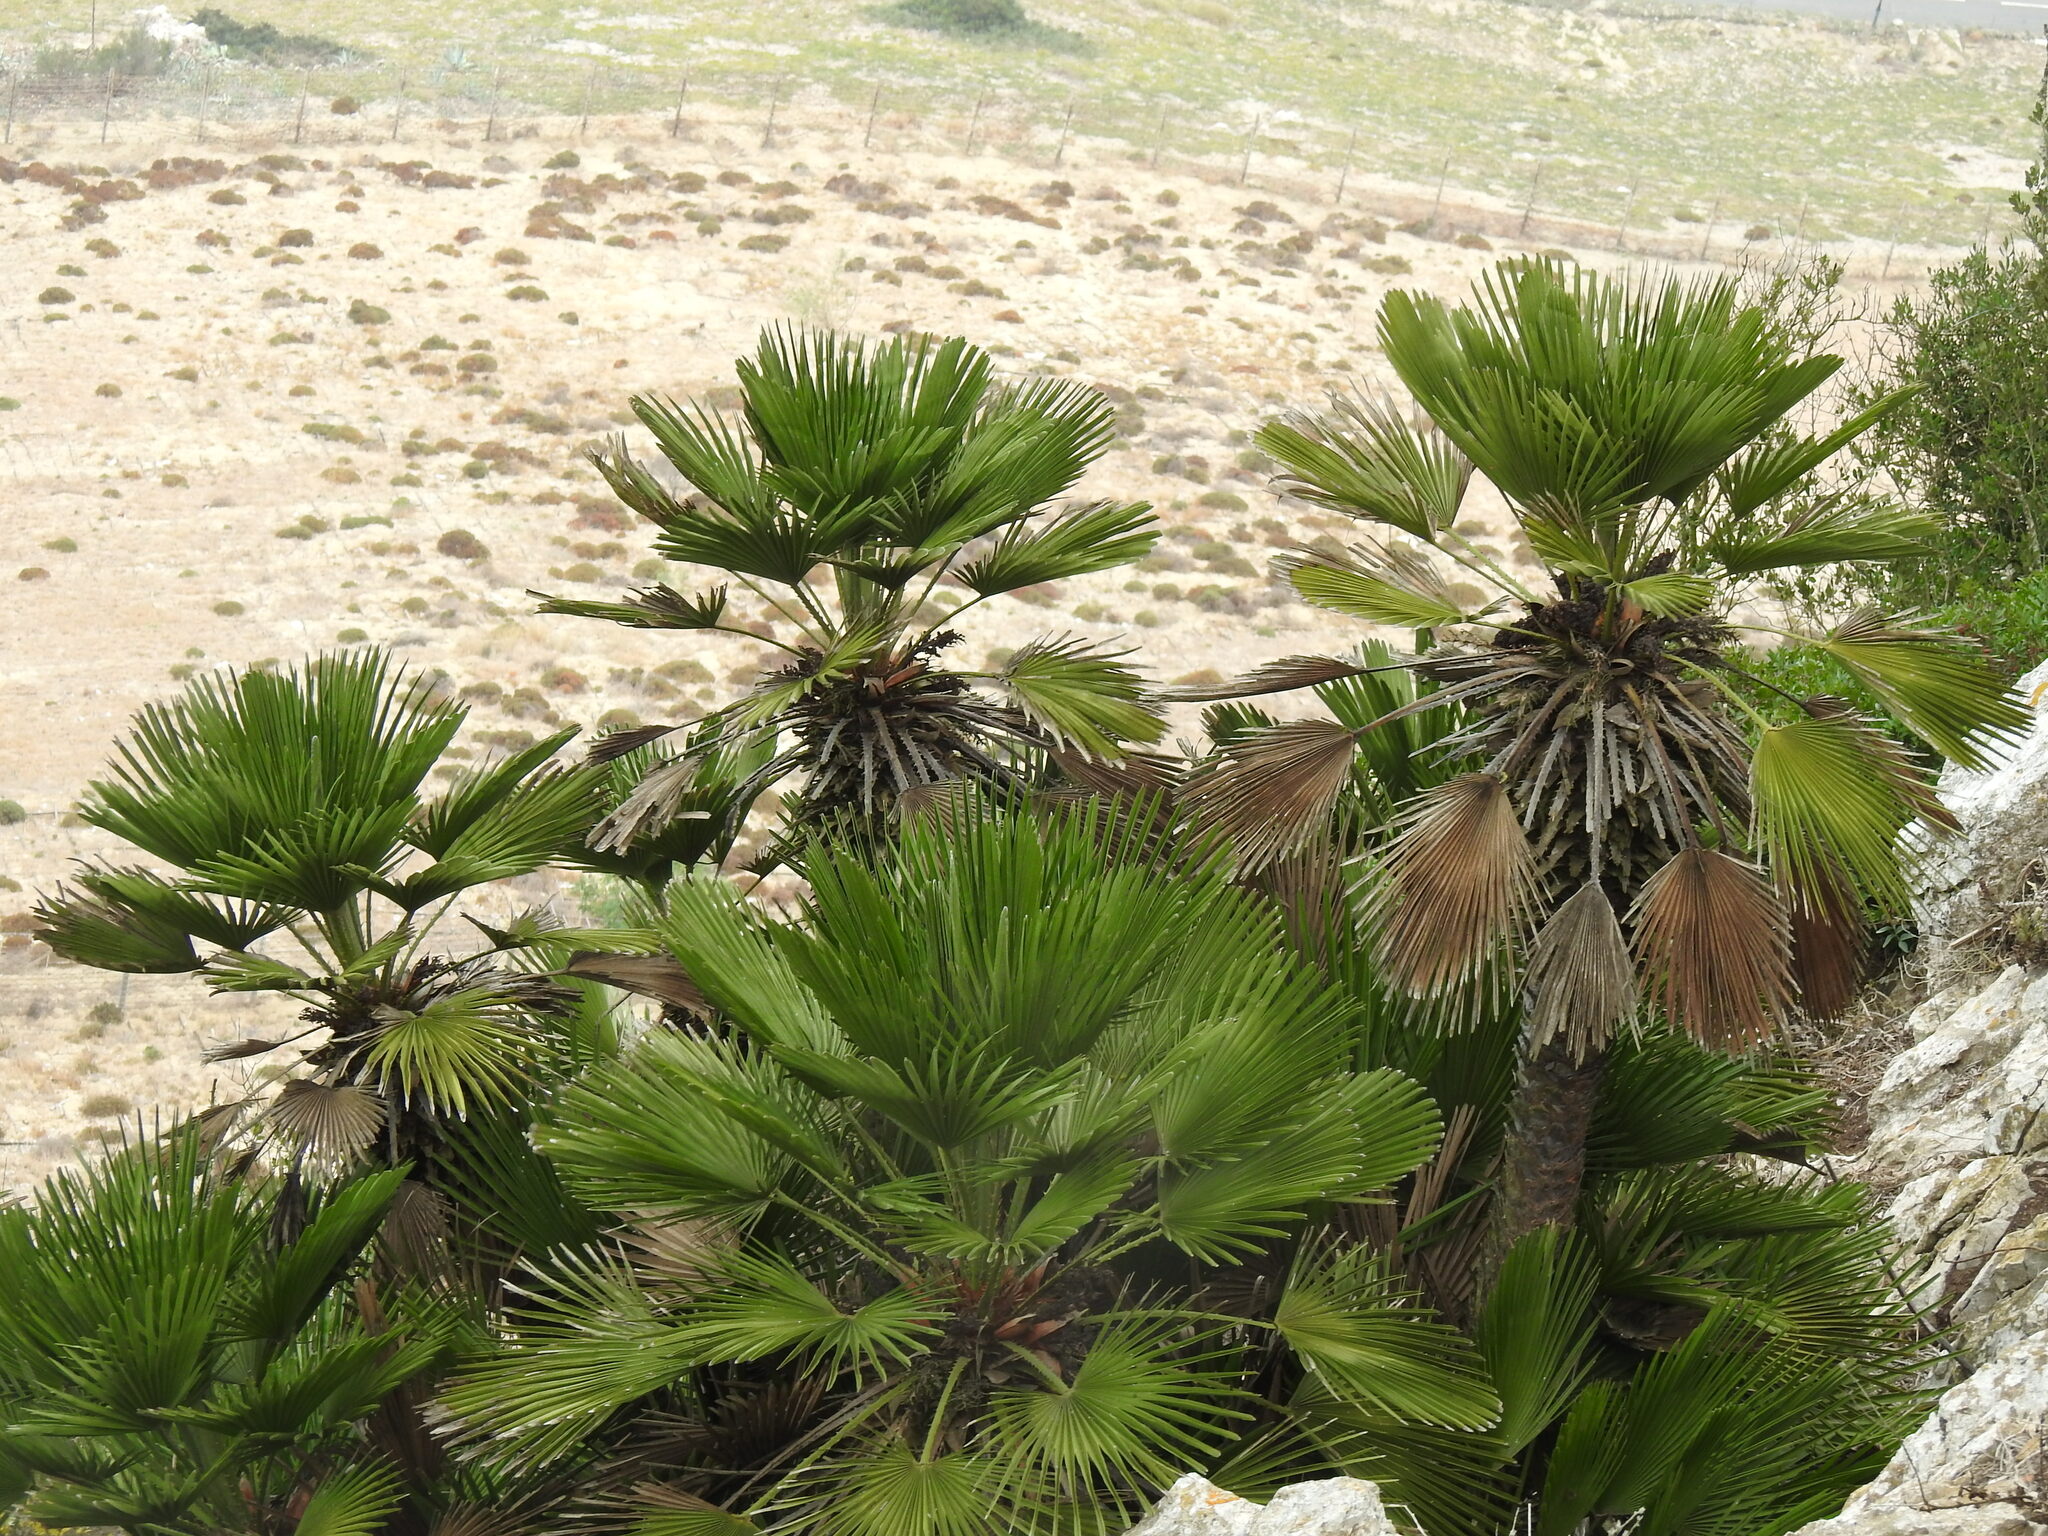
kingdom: Plantae
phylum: Tracheophyta
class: Liliopsida
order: Arecales
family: Arecaceae
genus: Chamaerops
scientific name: Chamaerops humilis
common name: Dwarf fan palm
